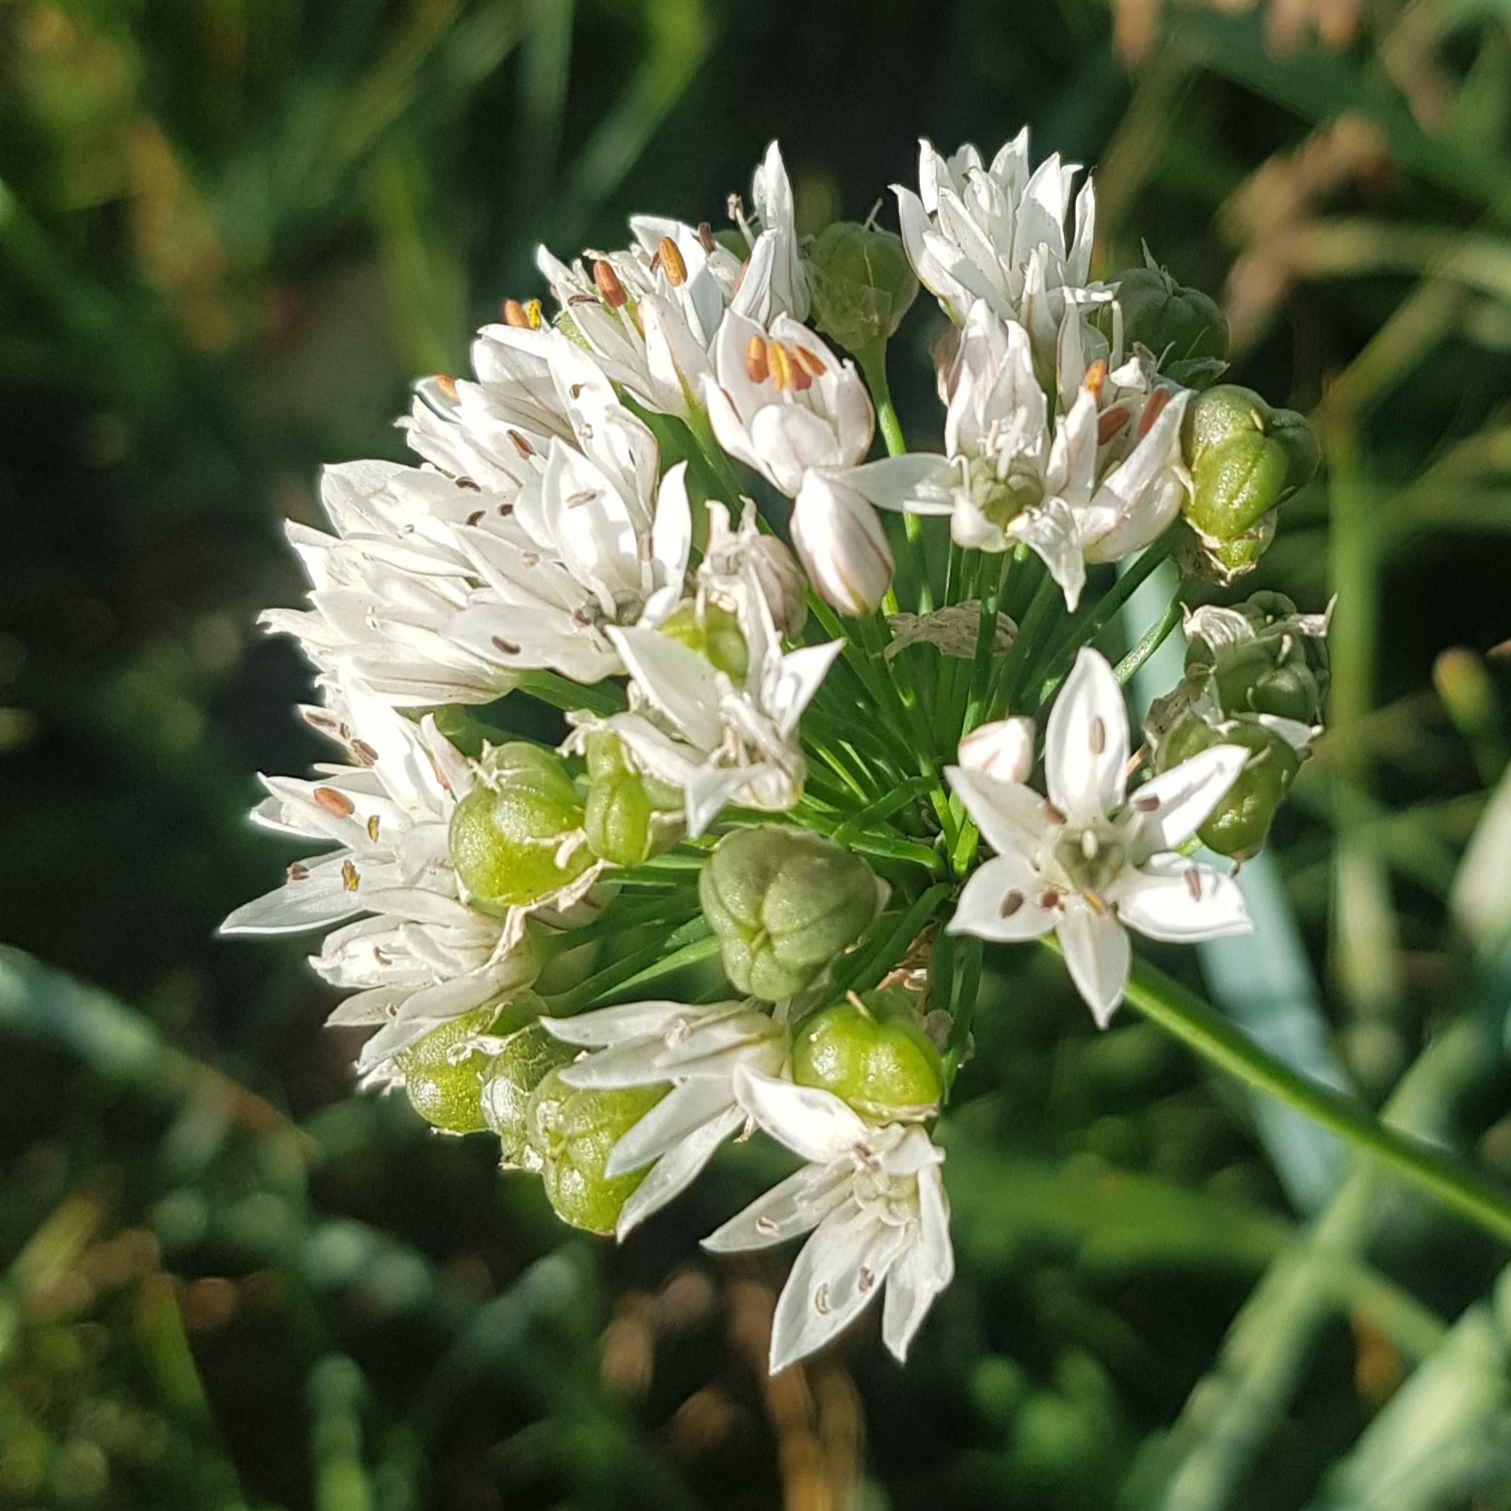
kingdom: Plantae
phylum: Tracheophyta
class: Liliopsida
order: Asparagales
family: Amaryllidaceae
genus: Allium
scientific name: Allium ramosum
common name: Fragrant garlic
